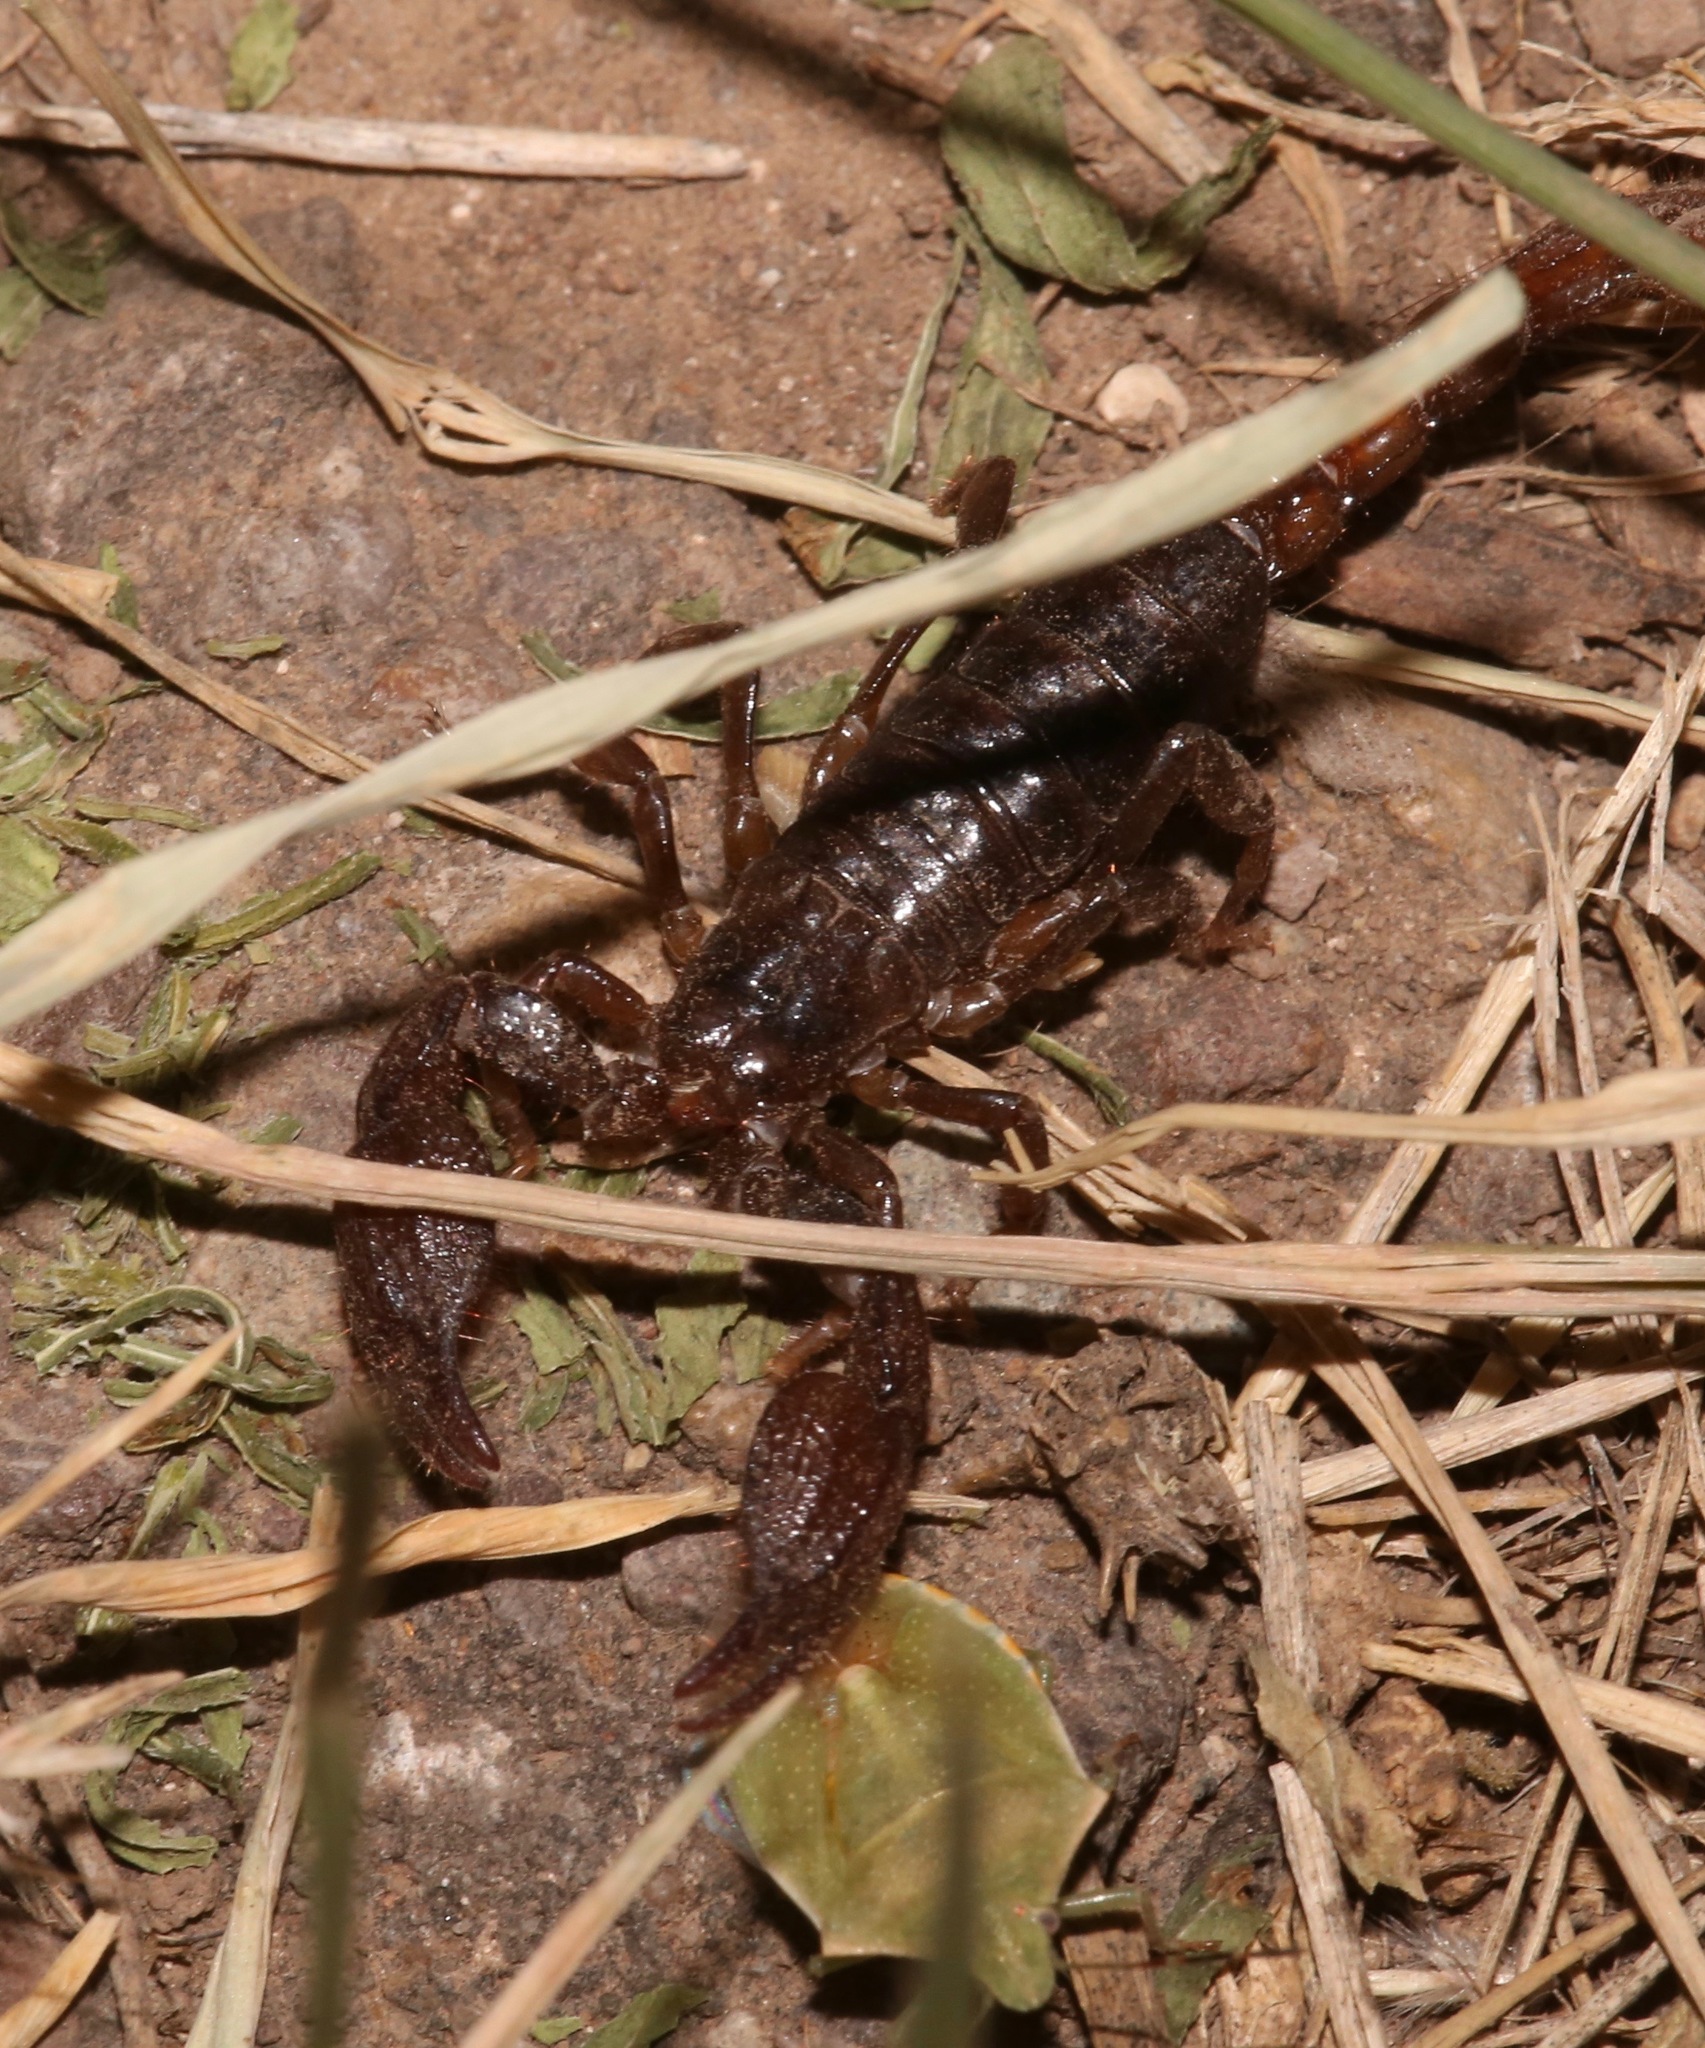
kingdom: Animalia
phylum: Arthropoda
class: Arachnida
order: Scorpiones
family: Diplocentridae
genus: Diplocentrus
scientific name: Diplocentrus lindo
